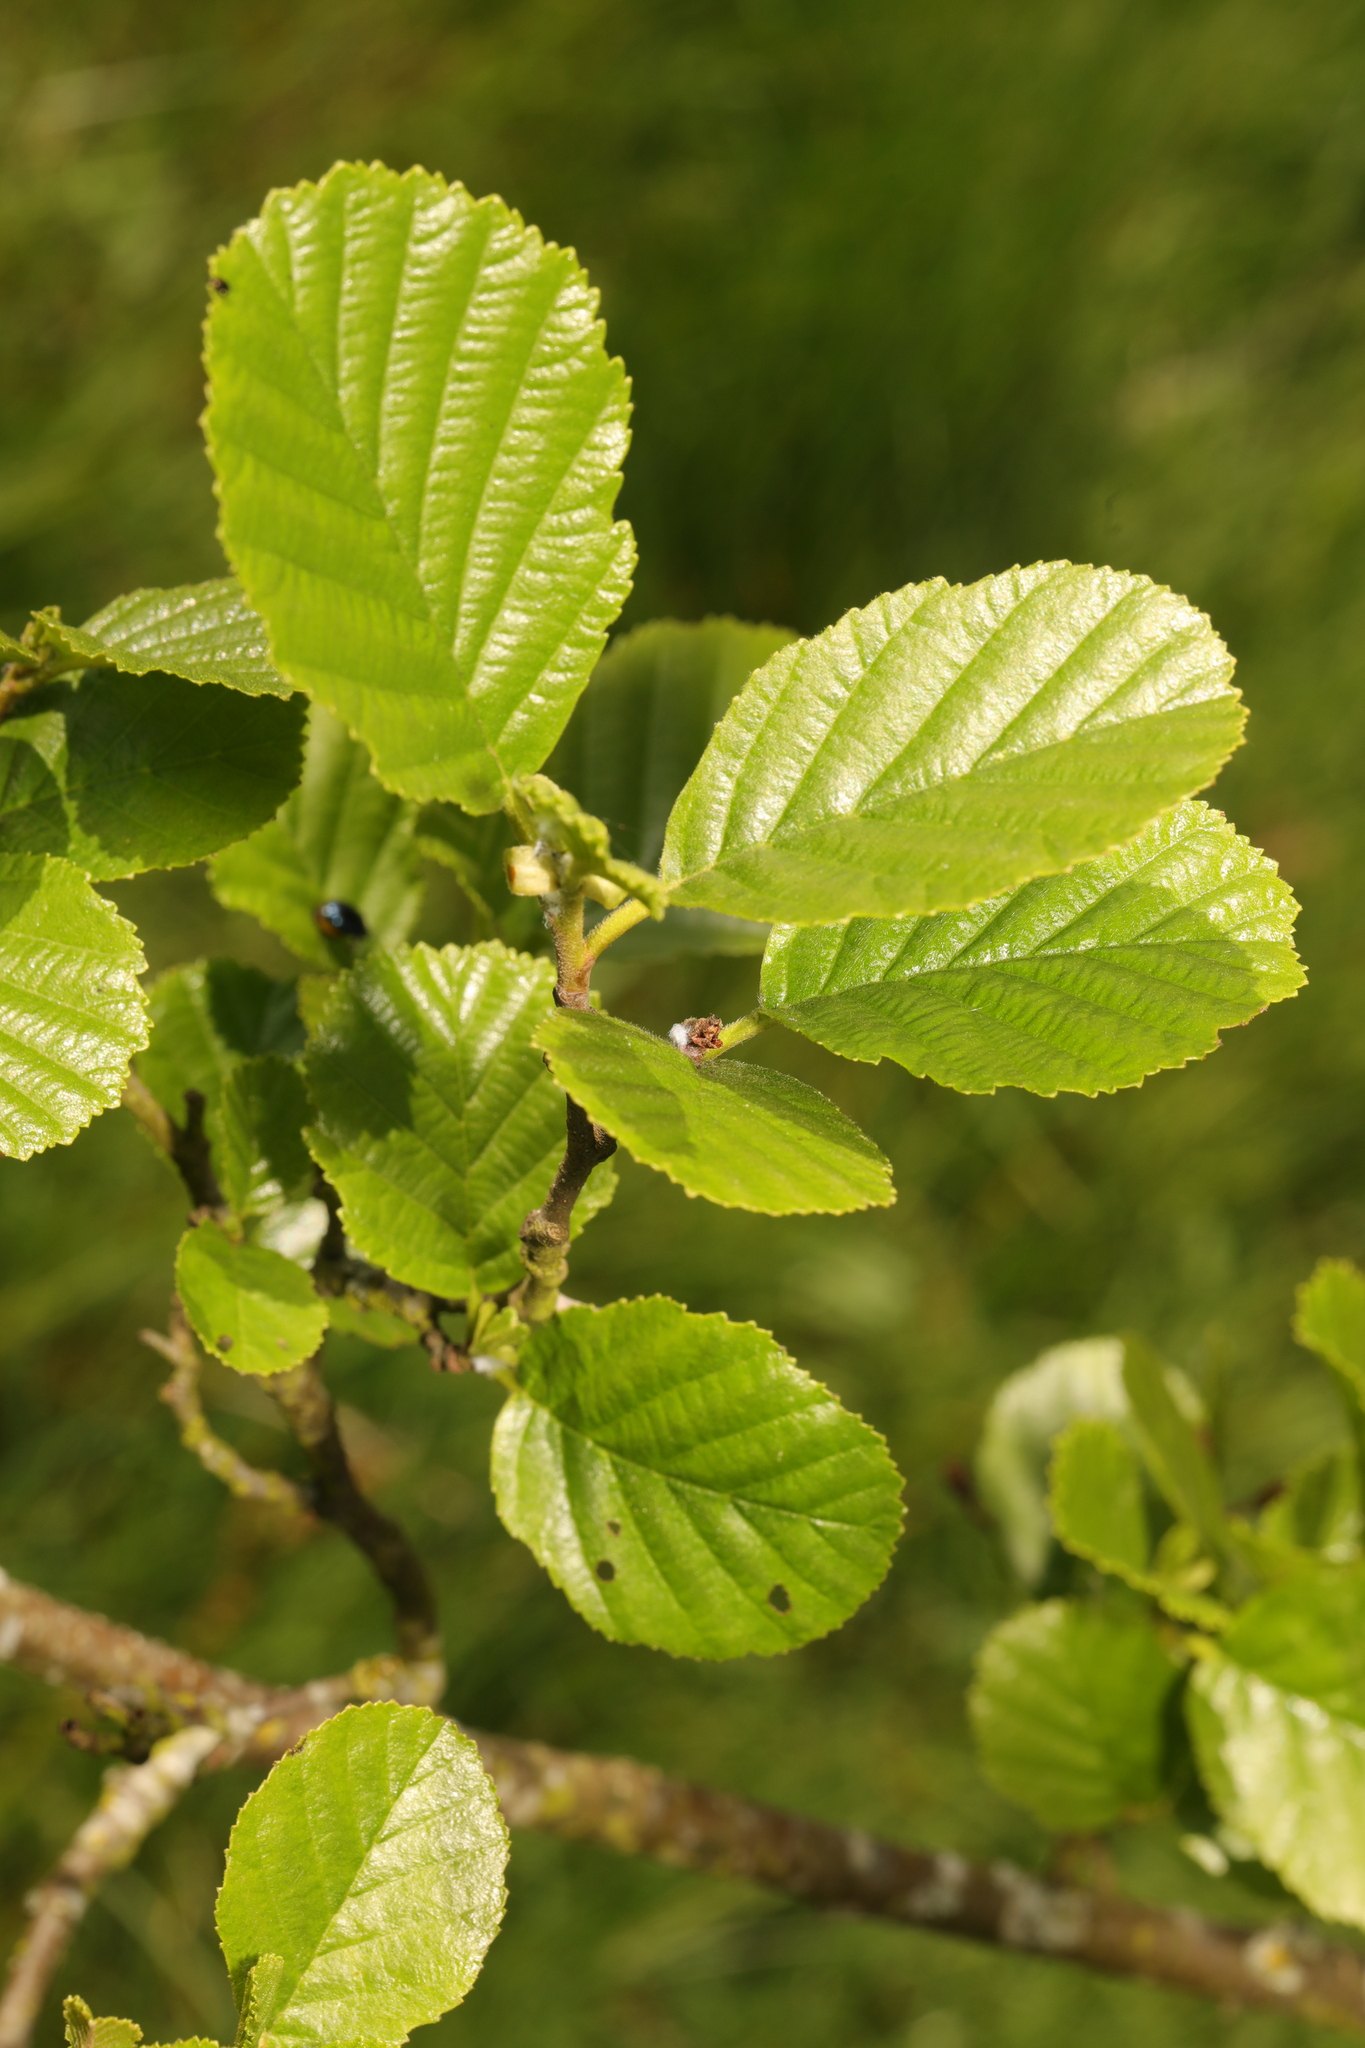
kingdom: Plantae
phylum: Tracheophyta
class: Magnoliopsida
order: Fagales
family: Betulaceae
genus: Alnus
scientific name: Alnus glutinosa
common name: Black alder
